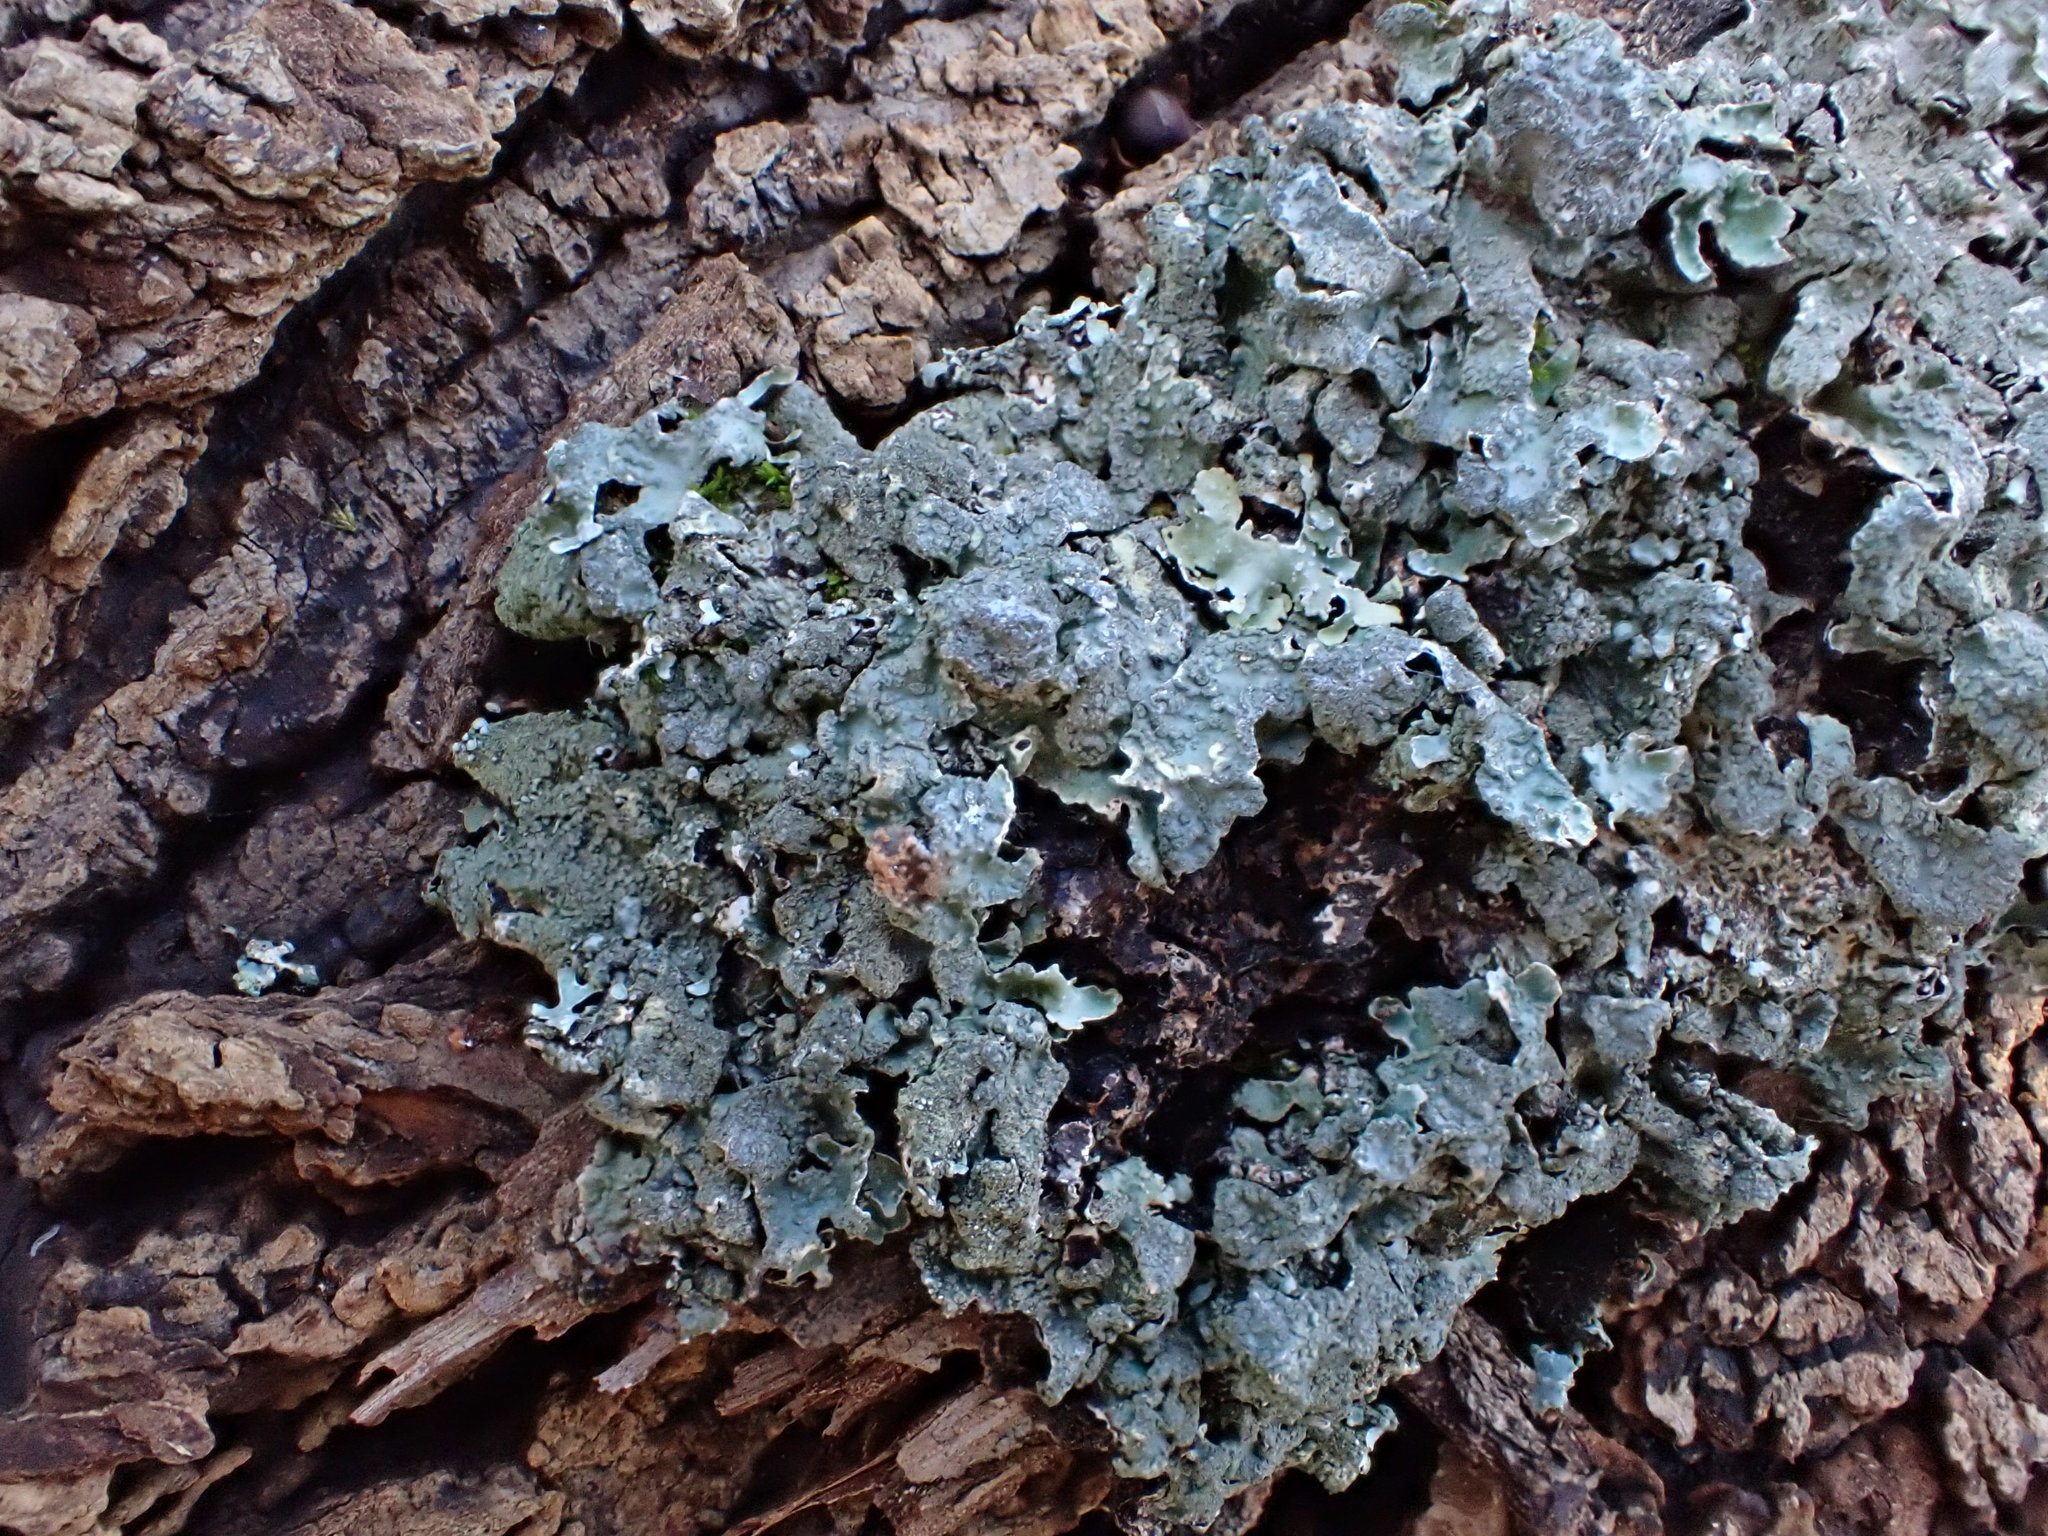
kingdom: Fungi
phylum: Ascomycota
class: Lecanoromycetes
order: Lecanorales
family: Parmeliaceae
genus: Parmelia
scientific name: Parmelia sulcata
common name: Netted shield lichen
